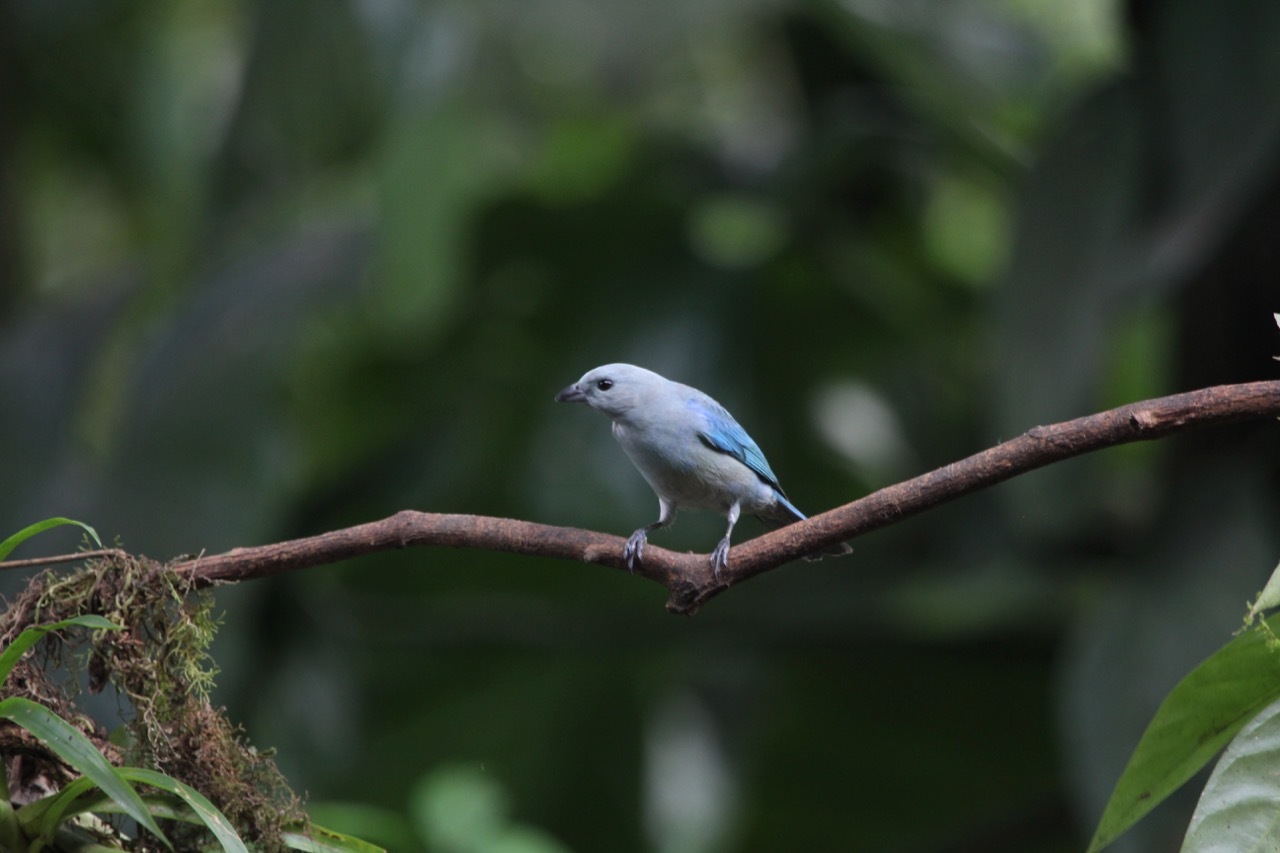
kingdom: Animalia
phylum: Chordata
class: Aves
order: Passeriformes
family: Thraupidae
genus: Thraupis
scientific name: Thraupis episcopus
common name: Blue-grey tanager
